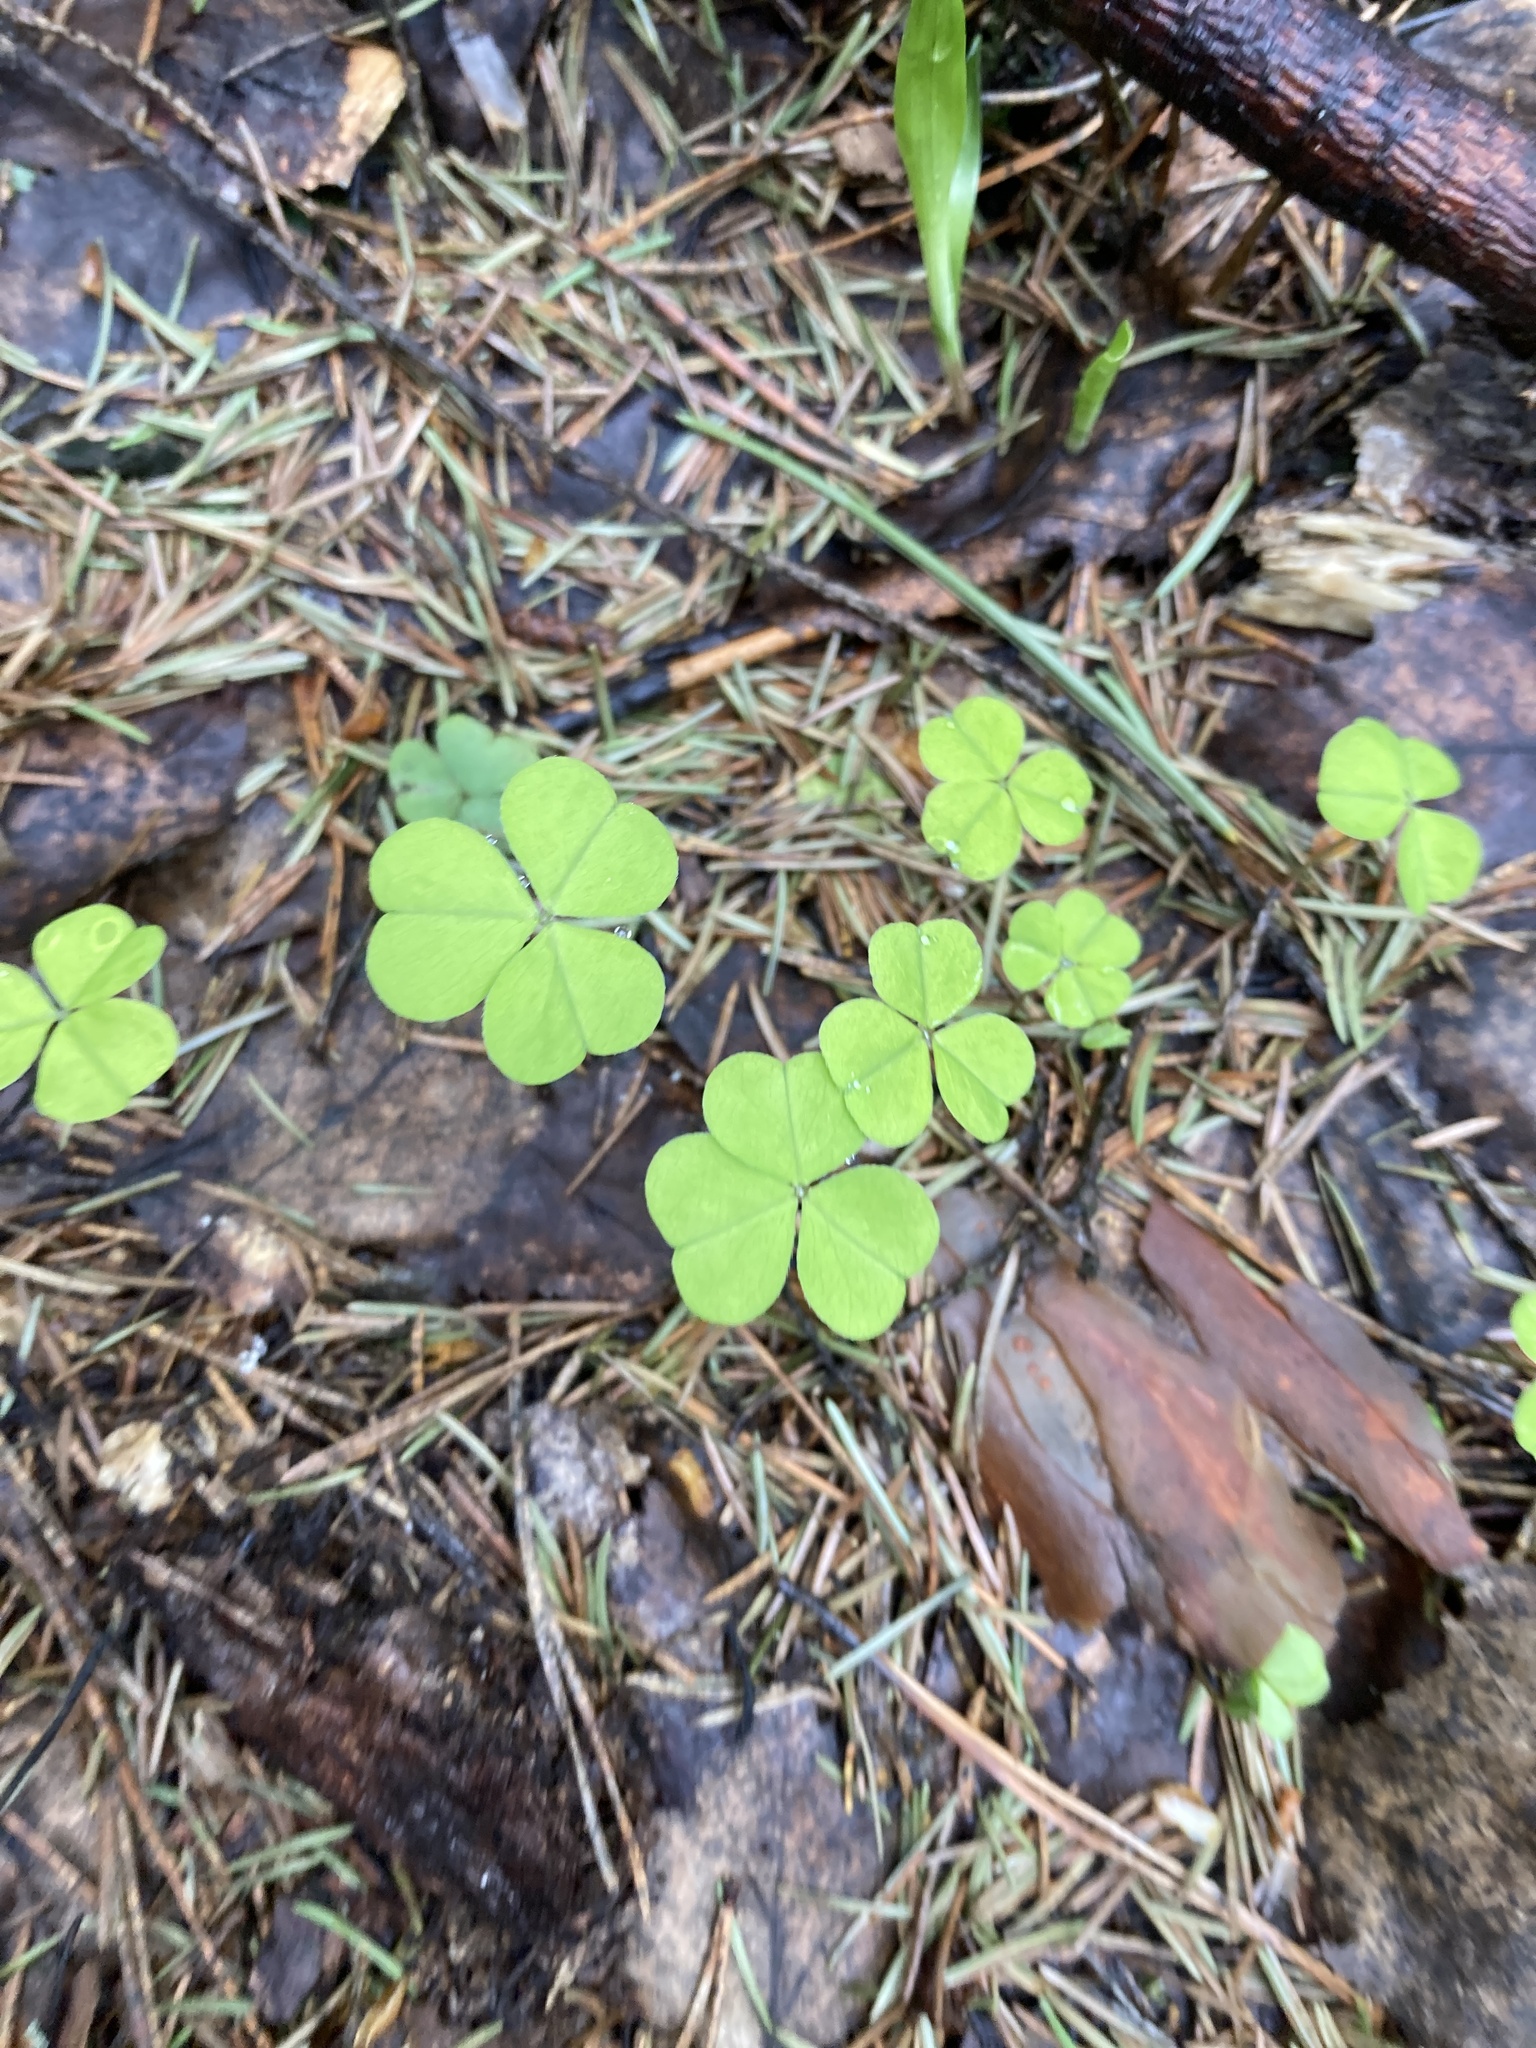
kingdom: Plantae
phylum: Tracheophyta
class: Magnoliopsida
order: Oxalidales
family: Oxalidaceae
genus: Oxalis
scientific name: Oxalis acetosella
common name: Wood-sorrel
